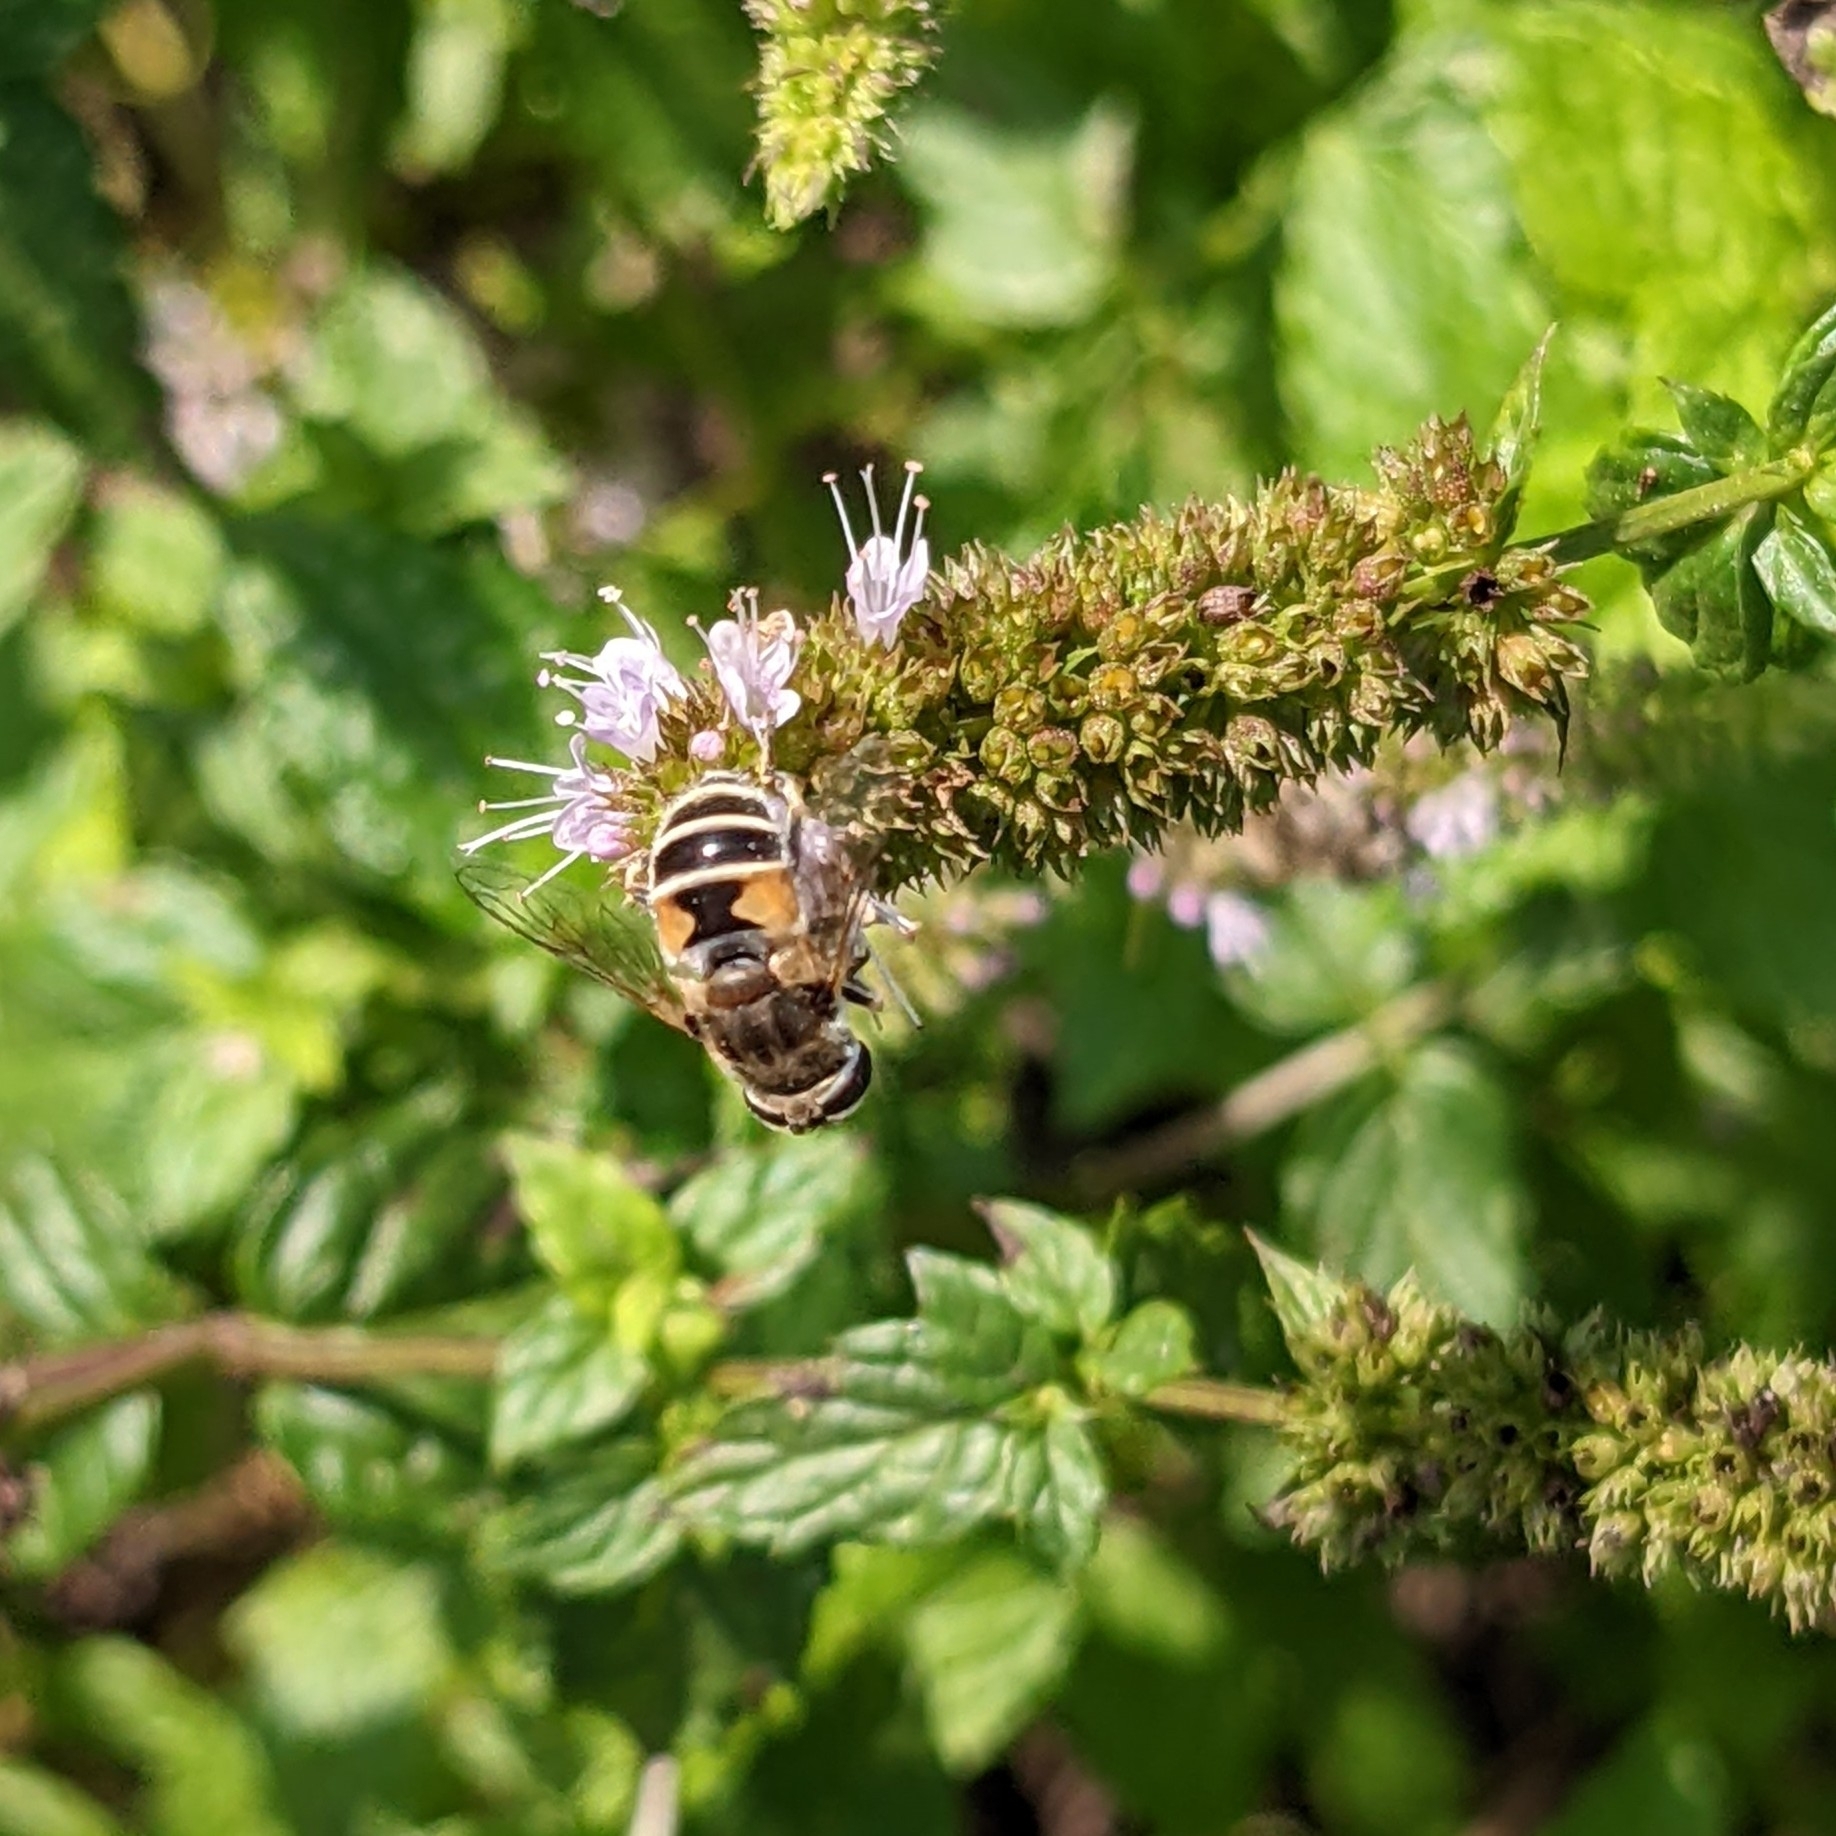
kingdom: Animalia
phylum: Arthropoda
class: Insecta
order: Diptera
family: Syrphidae
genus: Eristalis
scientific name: Eristalis arbustorum
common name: Hover fly
